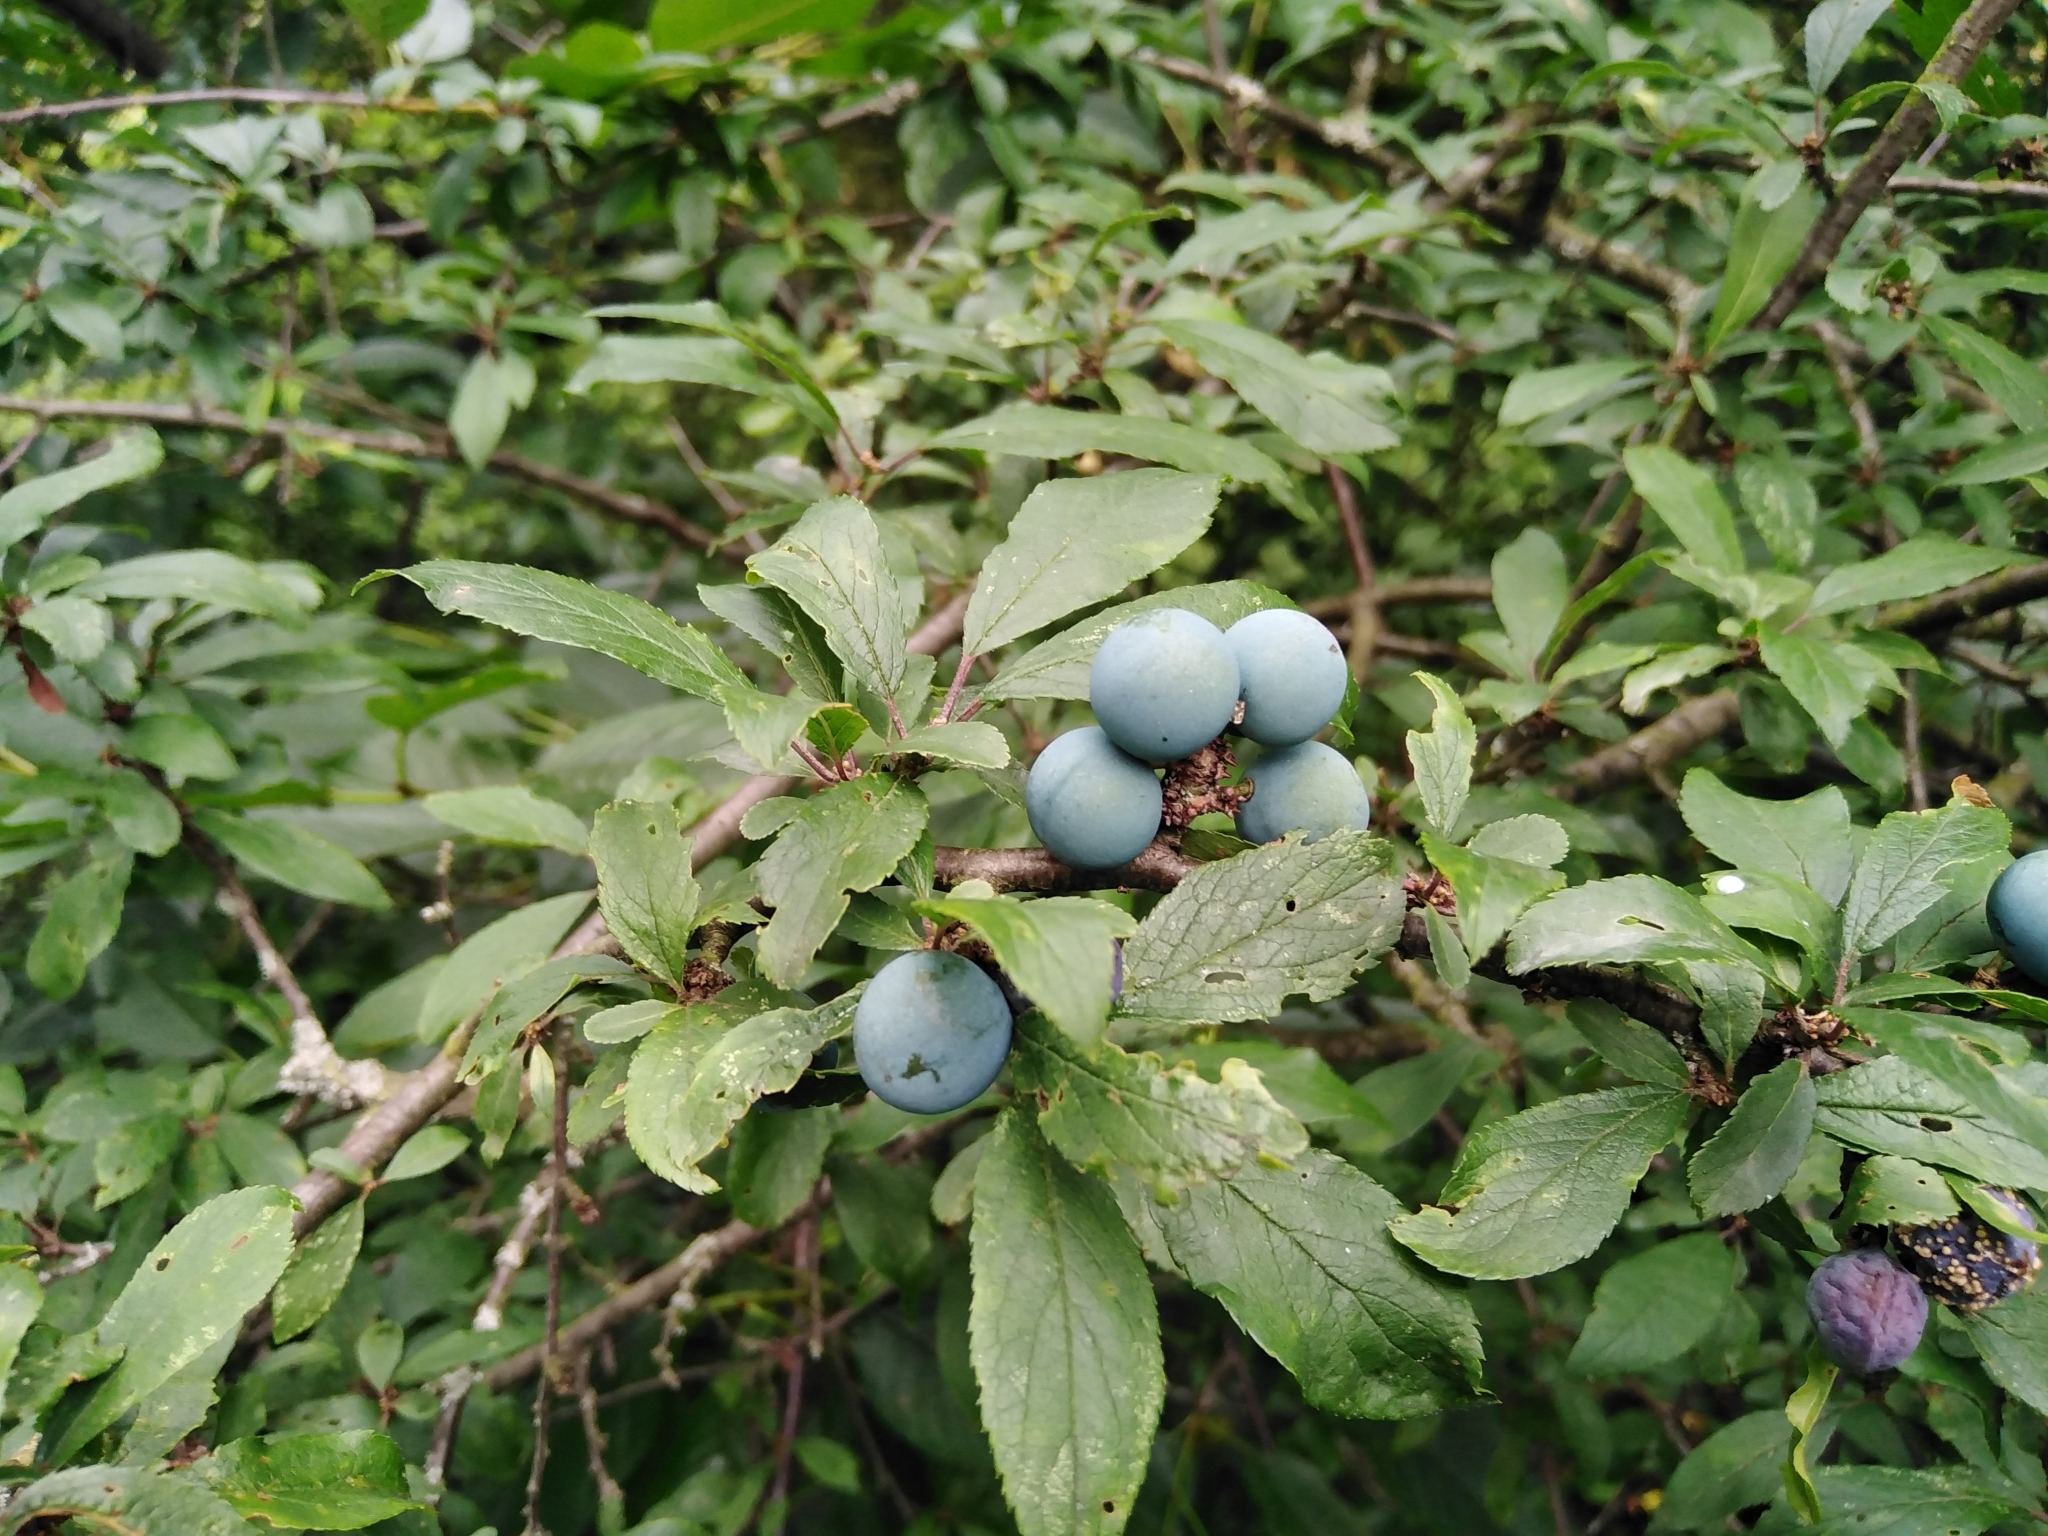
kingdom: Plantae
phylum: Tracheophyta
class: Magnoliopsida
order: Rosales
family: Rosaceae
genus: Prunus
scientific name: Prunus spinosa
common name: Blackthorn
